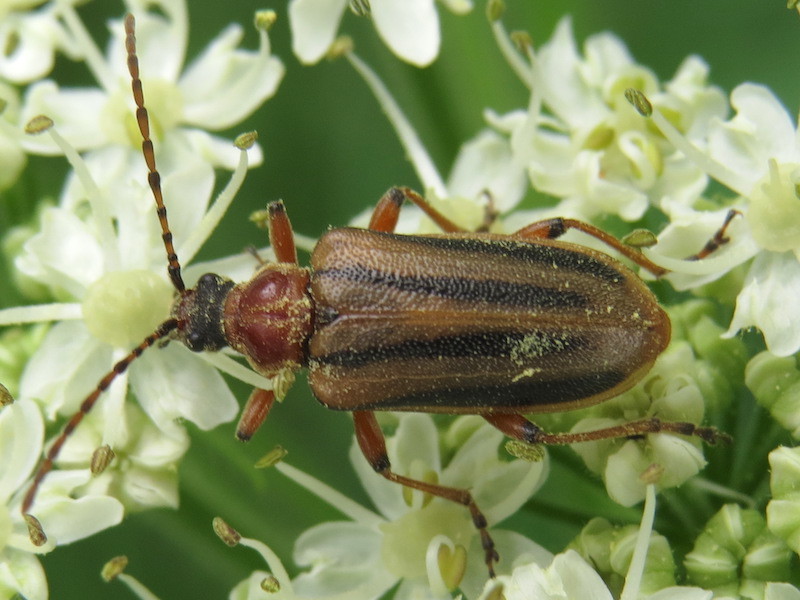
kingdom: Animalia
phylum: Arthropoda
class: Insecta
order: Coleoptera
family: Cerambycidae
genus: Brachysomida
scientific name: Brachysomida bivittata
